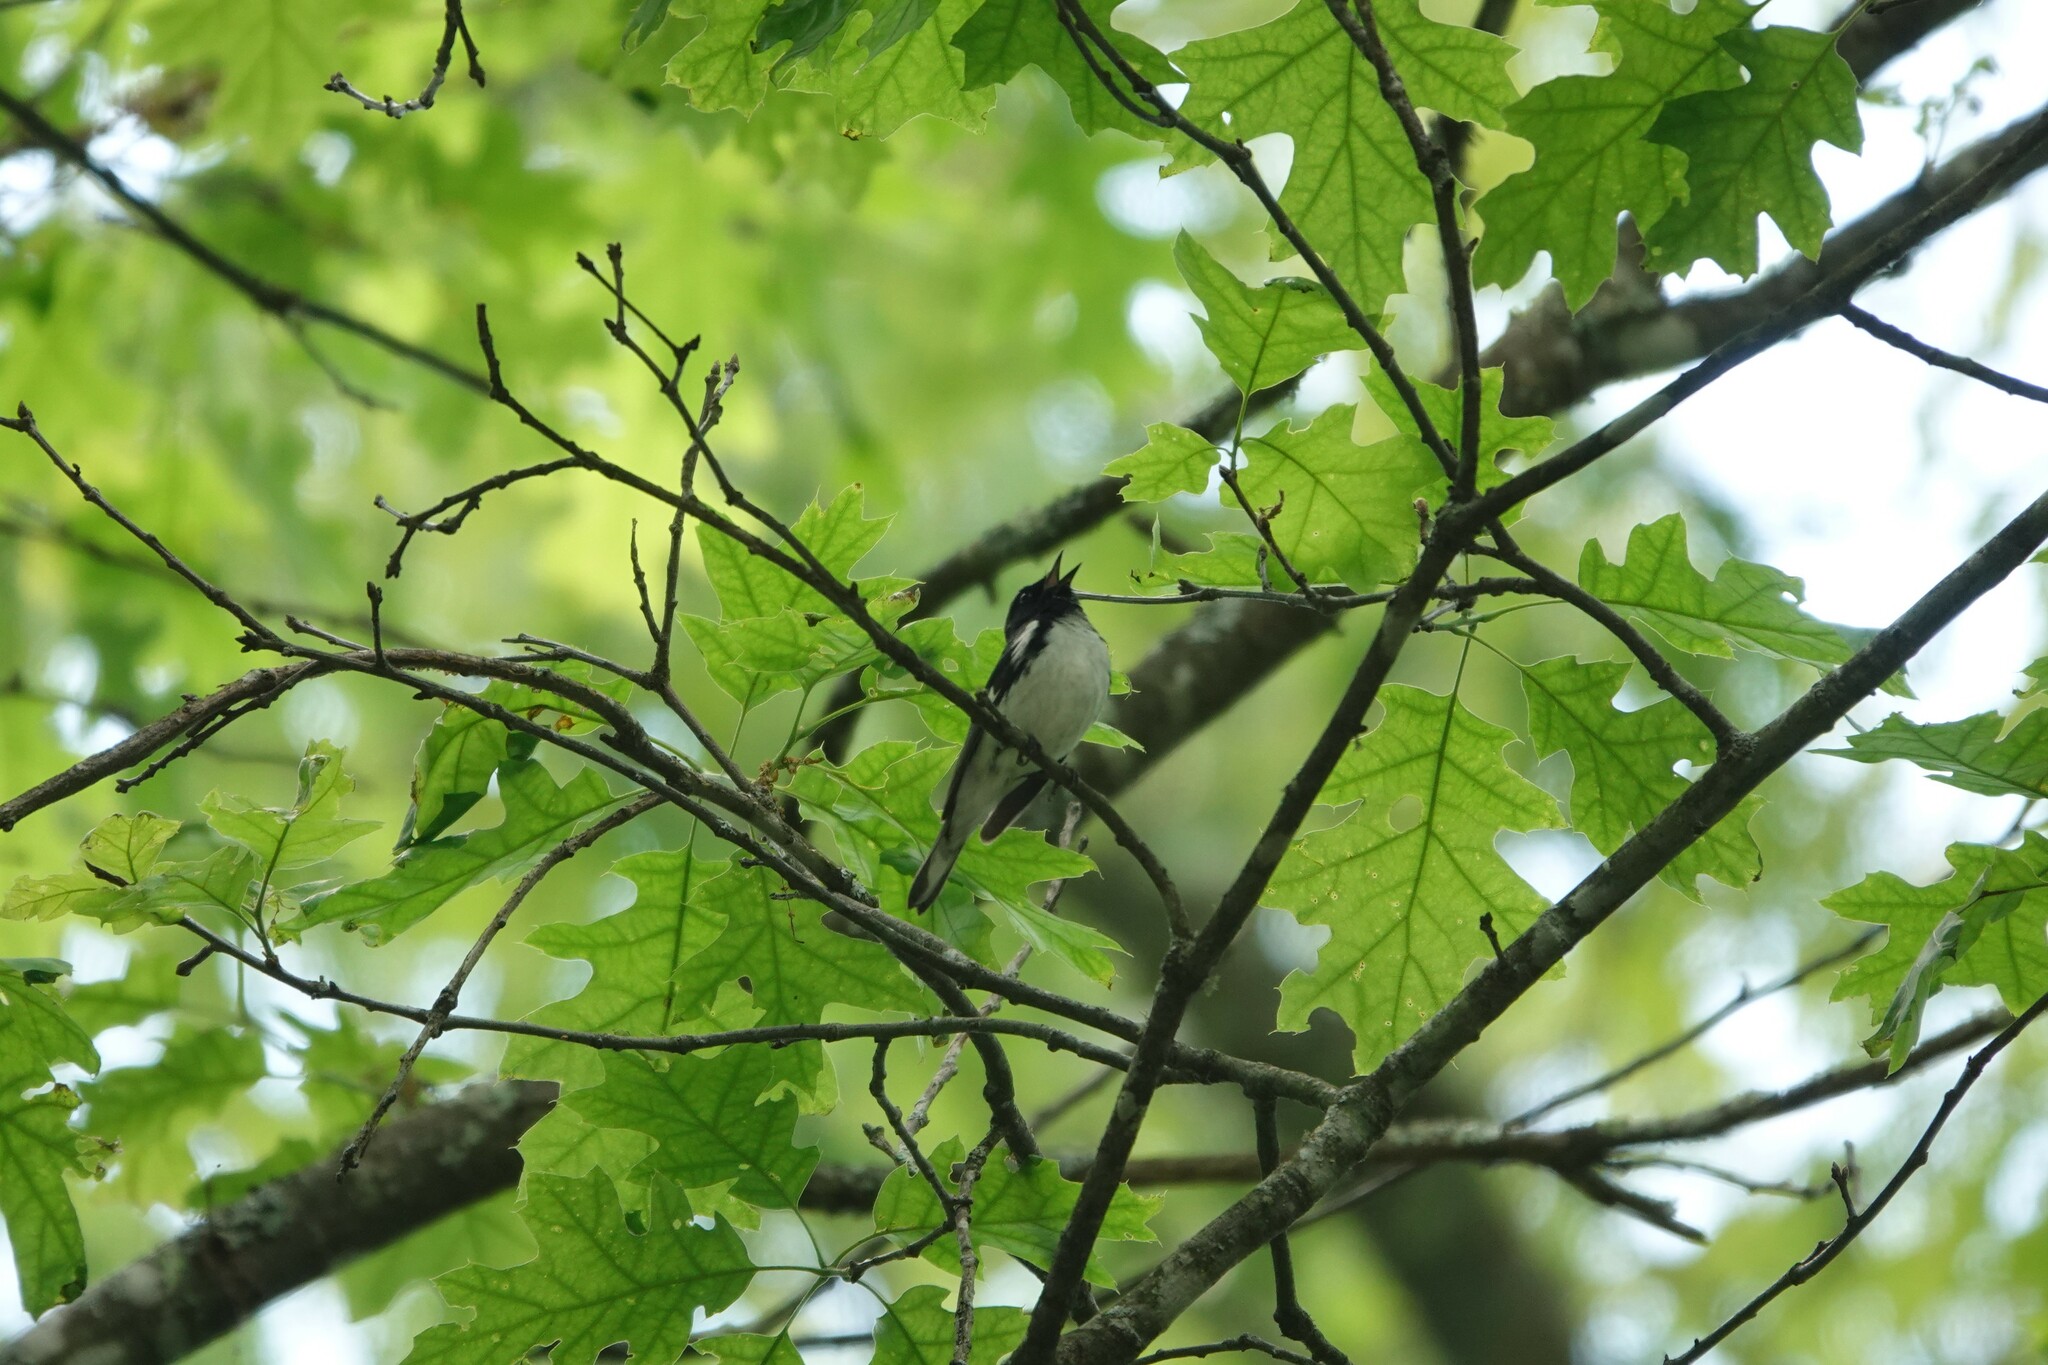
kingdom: Animalia
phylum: Chordata
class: Aves
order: Passeriformes
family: Parulidae
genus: Setophaga
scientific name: Setophaga caerulescens
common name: Black-throated blue warbler
